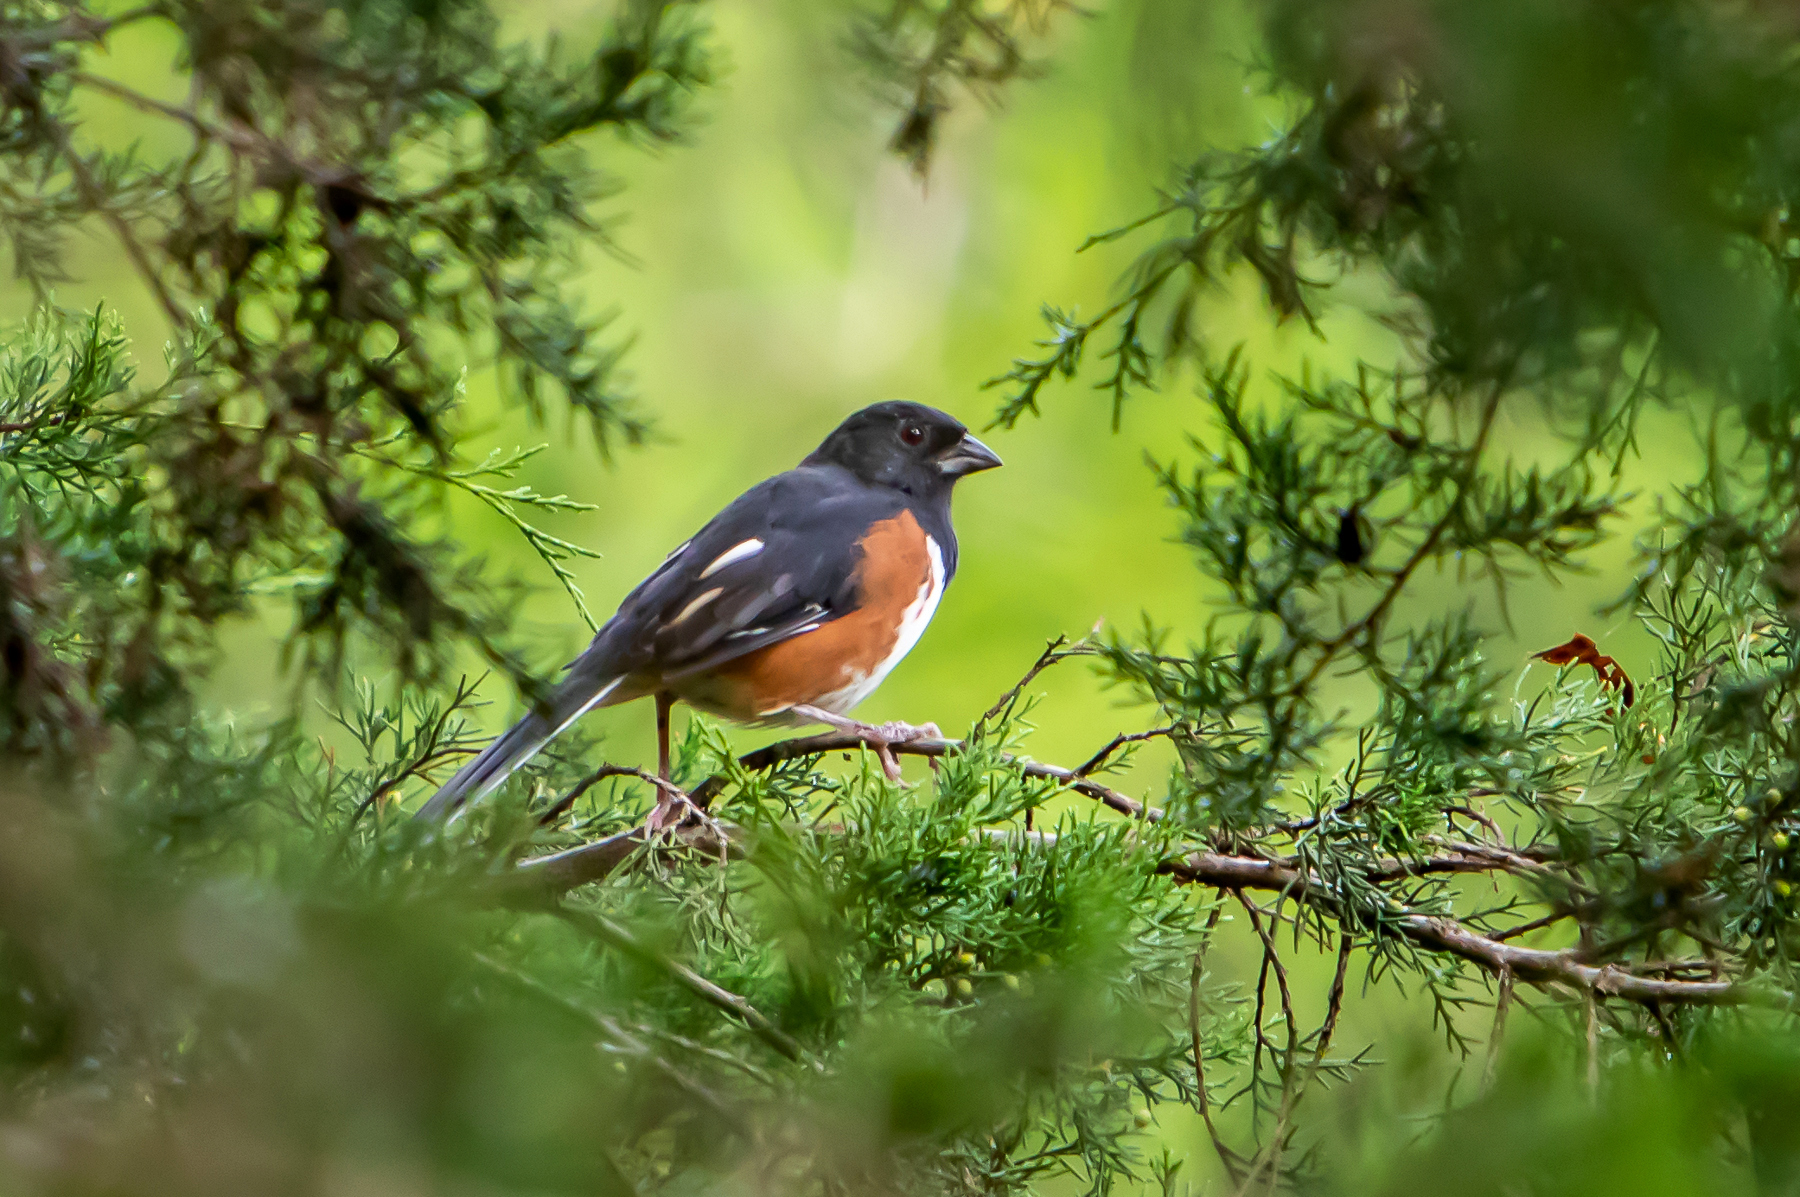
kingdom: Animalia
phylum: Chordata
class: Aves
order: Passeriformes
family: Passerellidae
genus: Pipilo
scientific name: Pipilo erythrophthalmus
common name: Eastern towhee
